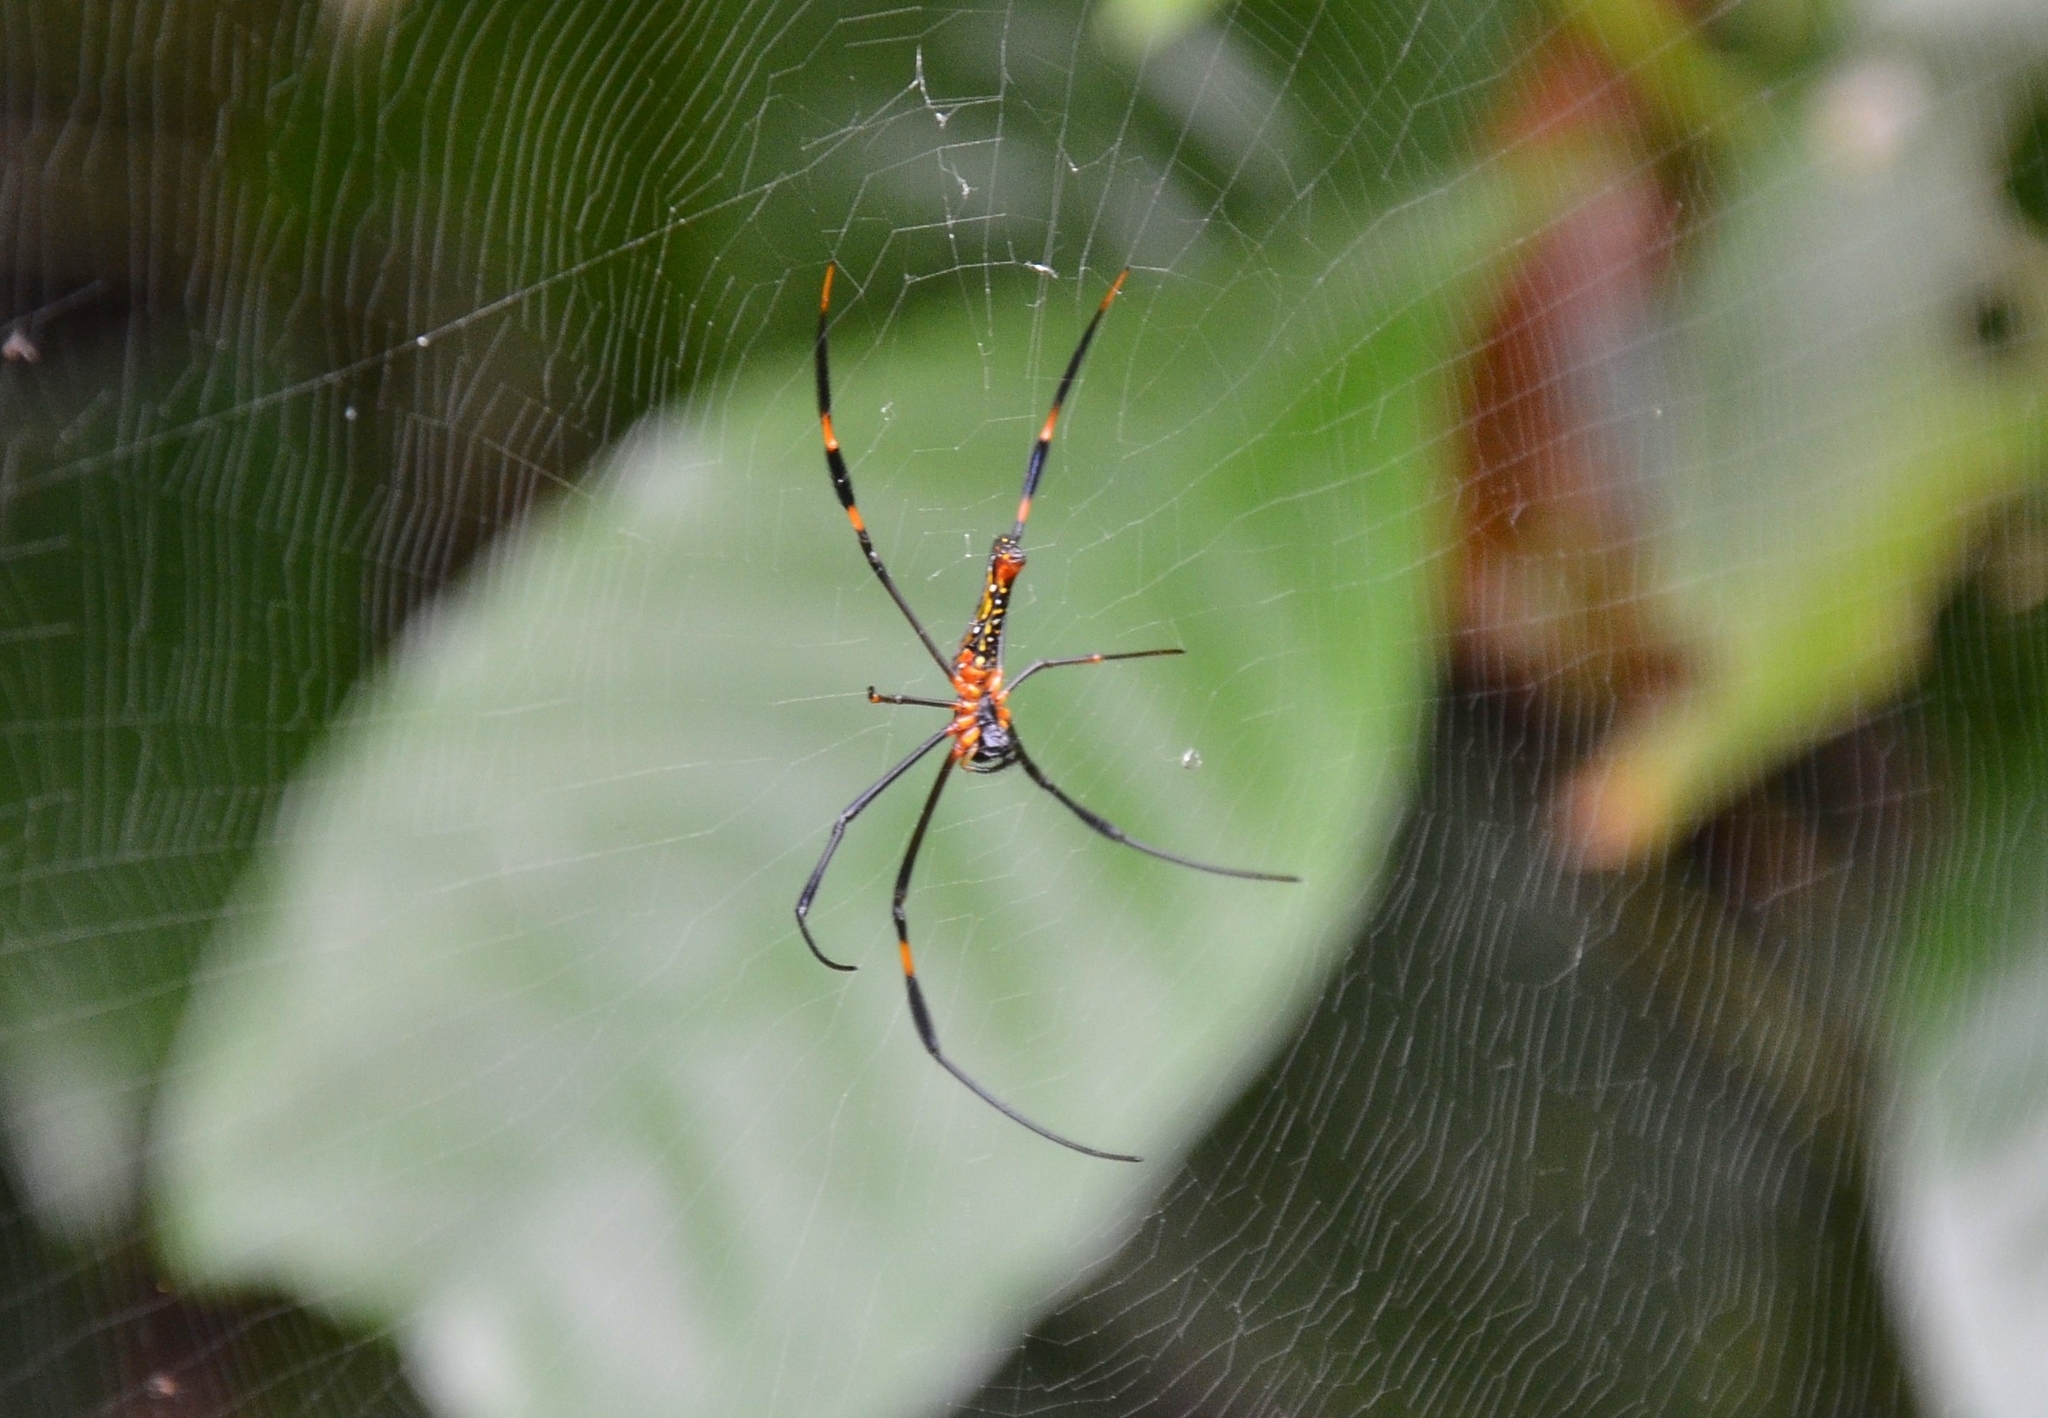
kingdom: Animalia
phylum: Arthropoda
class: Arachnida
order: Araneae
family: Araneidae
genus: Nephila
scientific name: Nephila pilipes
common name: Giant golden orb weaver
